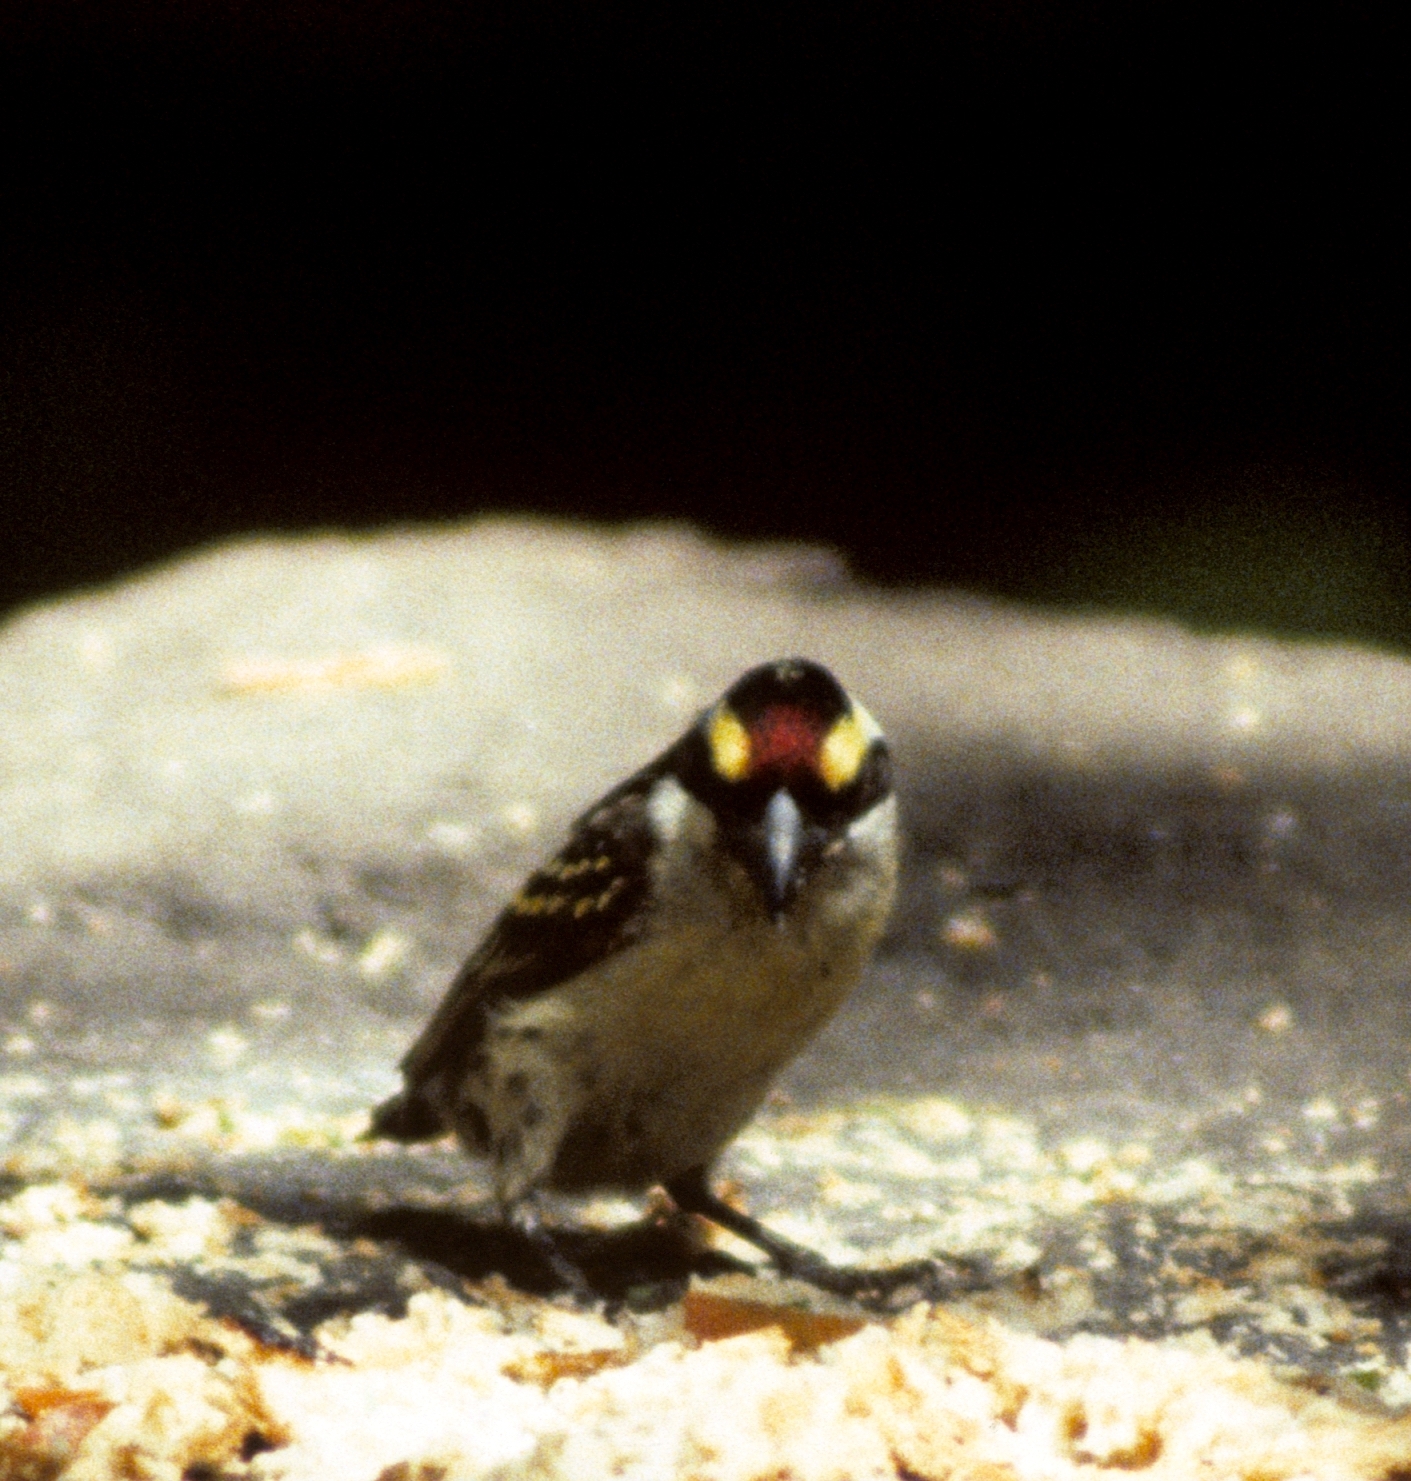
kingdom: Animalia
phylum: Chordata
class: Aves
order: Piciformes
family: Lybiidae
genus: Tricholaema
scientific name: Tricholaema diademata
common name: Red-fronted barbet
